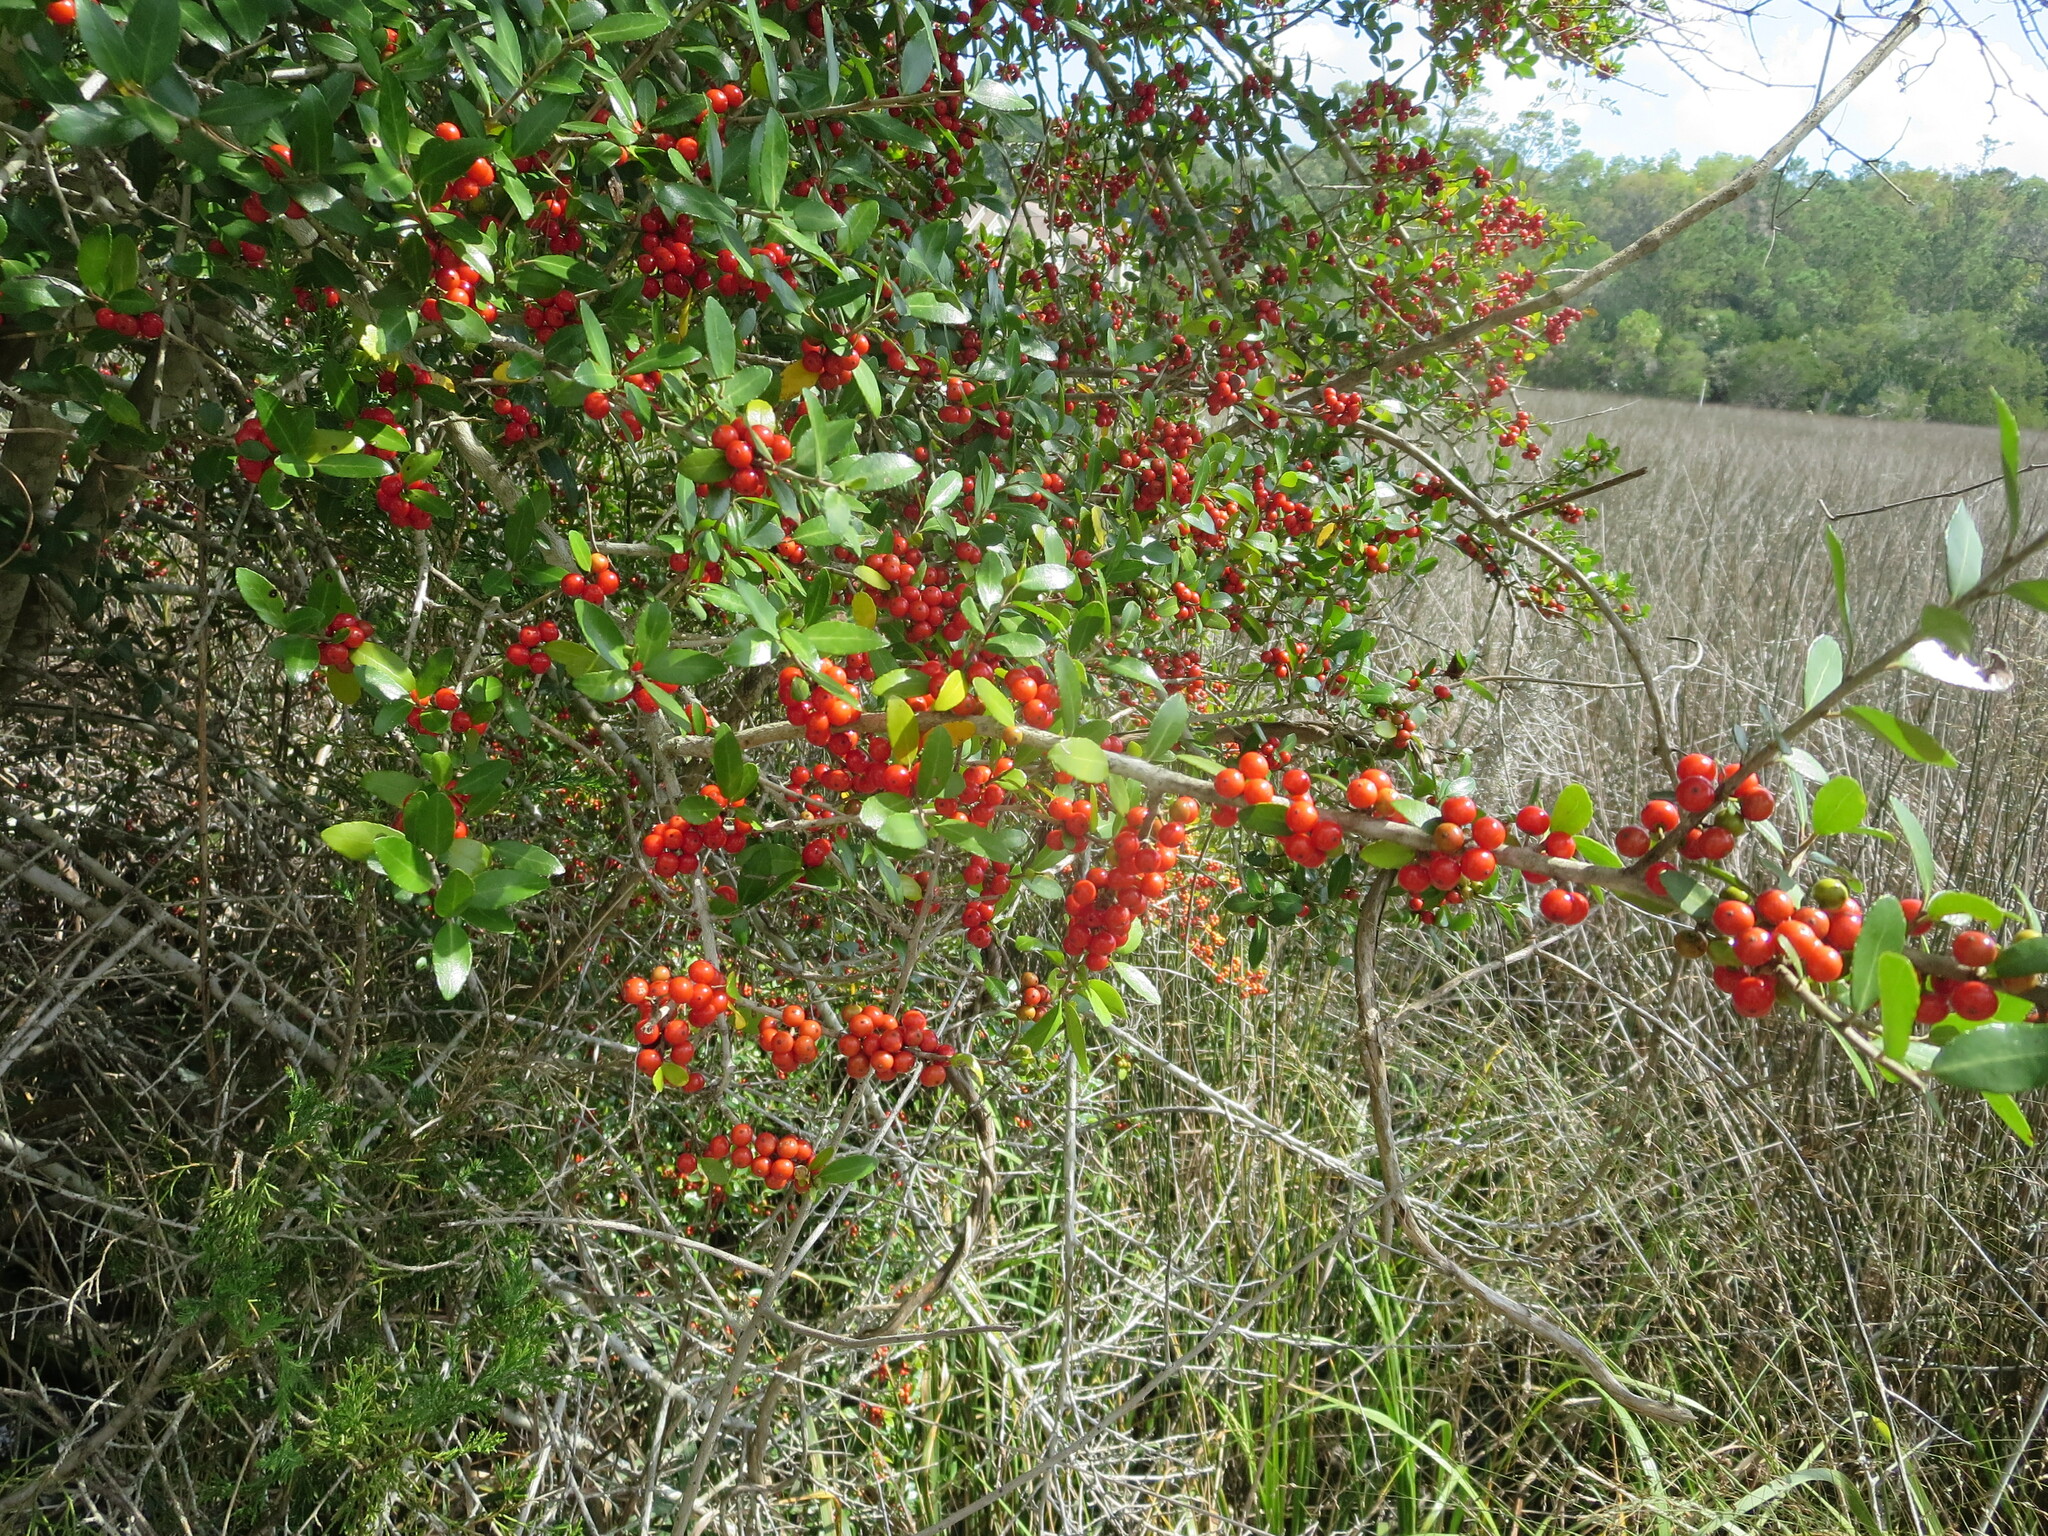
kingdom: Plantae
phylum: Tracheophyta
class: Magnoliopsida
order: Aquifoliales
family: Aquifoliaceae
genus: Ilex
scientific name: Ilex vomitoria
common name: Yaupon holly
